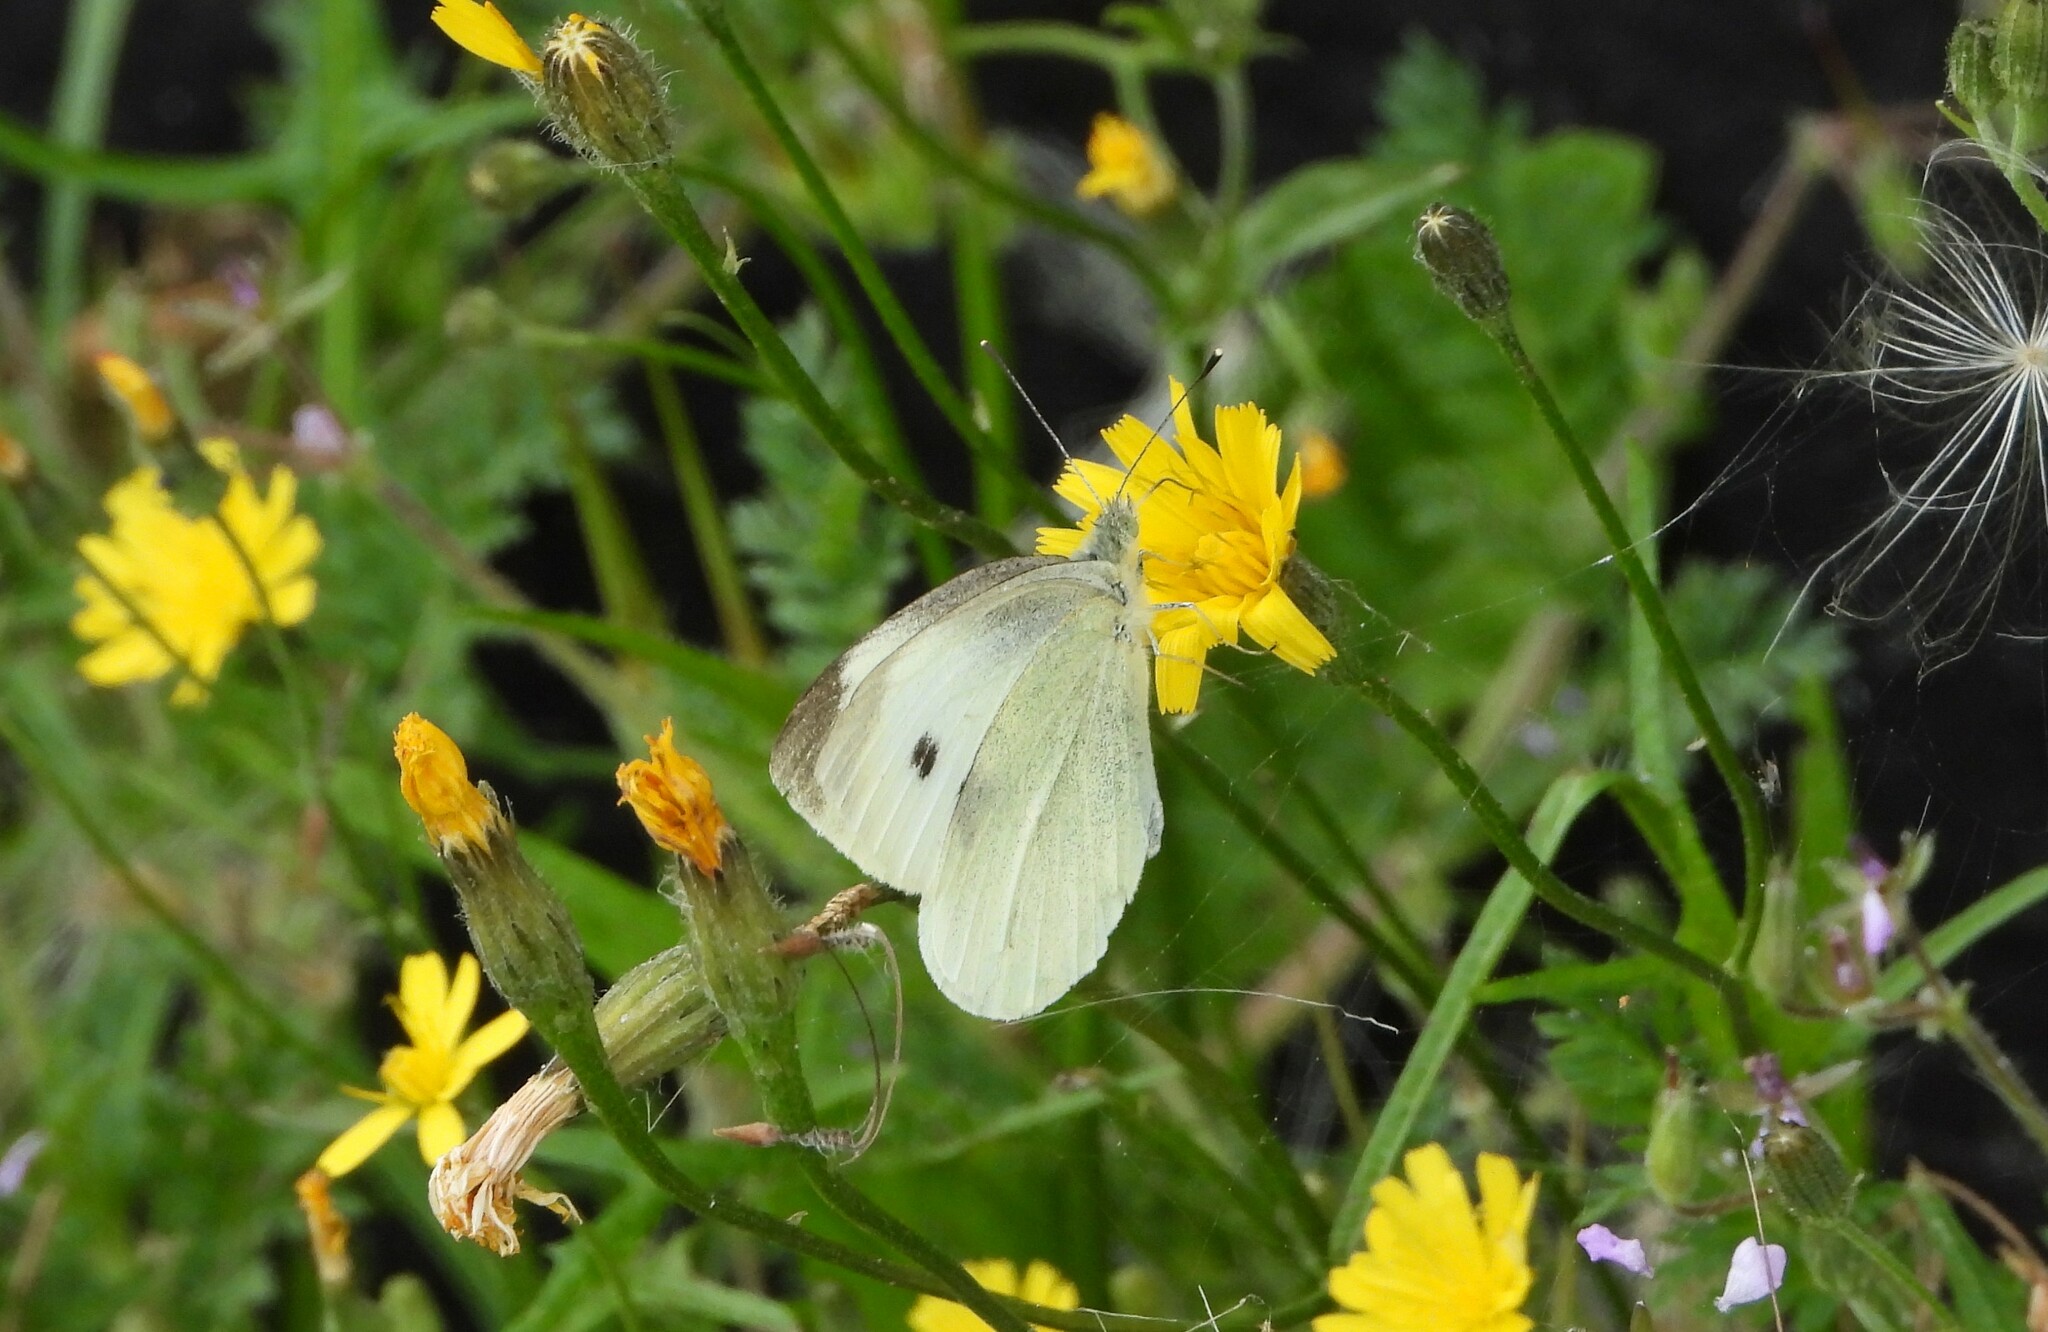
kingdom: Animalia
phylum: Arthropoda
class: Insecta
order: Lepidoptera
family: Pieridae
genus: Pieris
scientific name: Pieris rapae
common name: Small white
